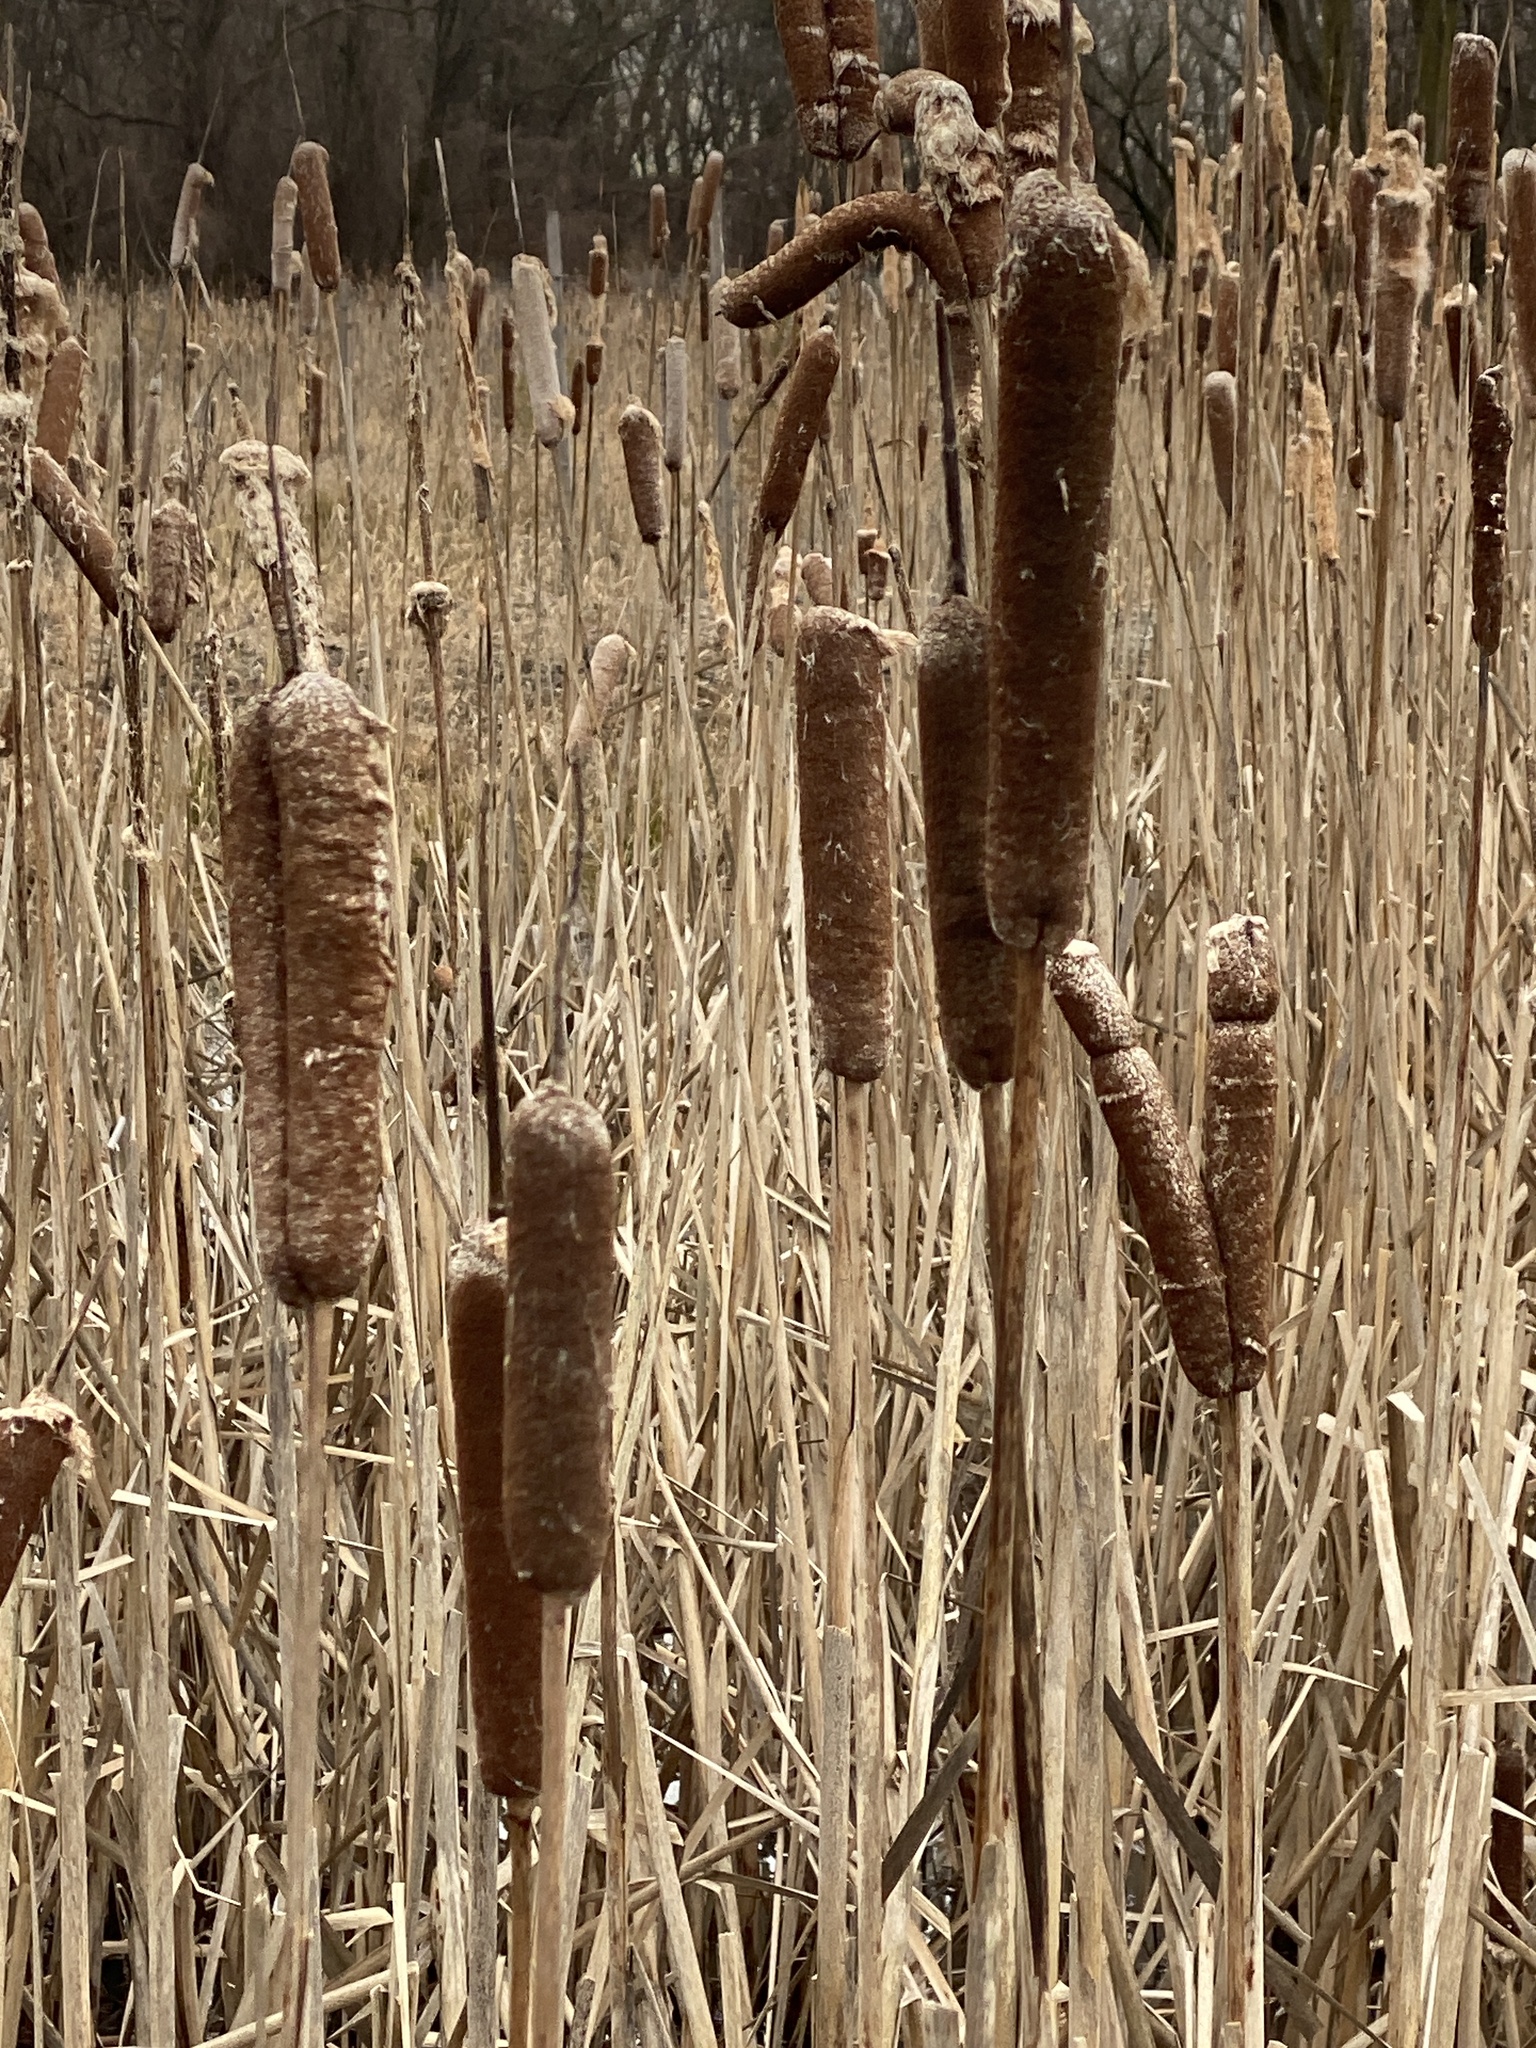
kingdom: Plantae
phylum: Tracheophyta
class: Liliopsida
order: Poales
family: Typhaceae
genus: Typha
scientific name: Typha
